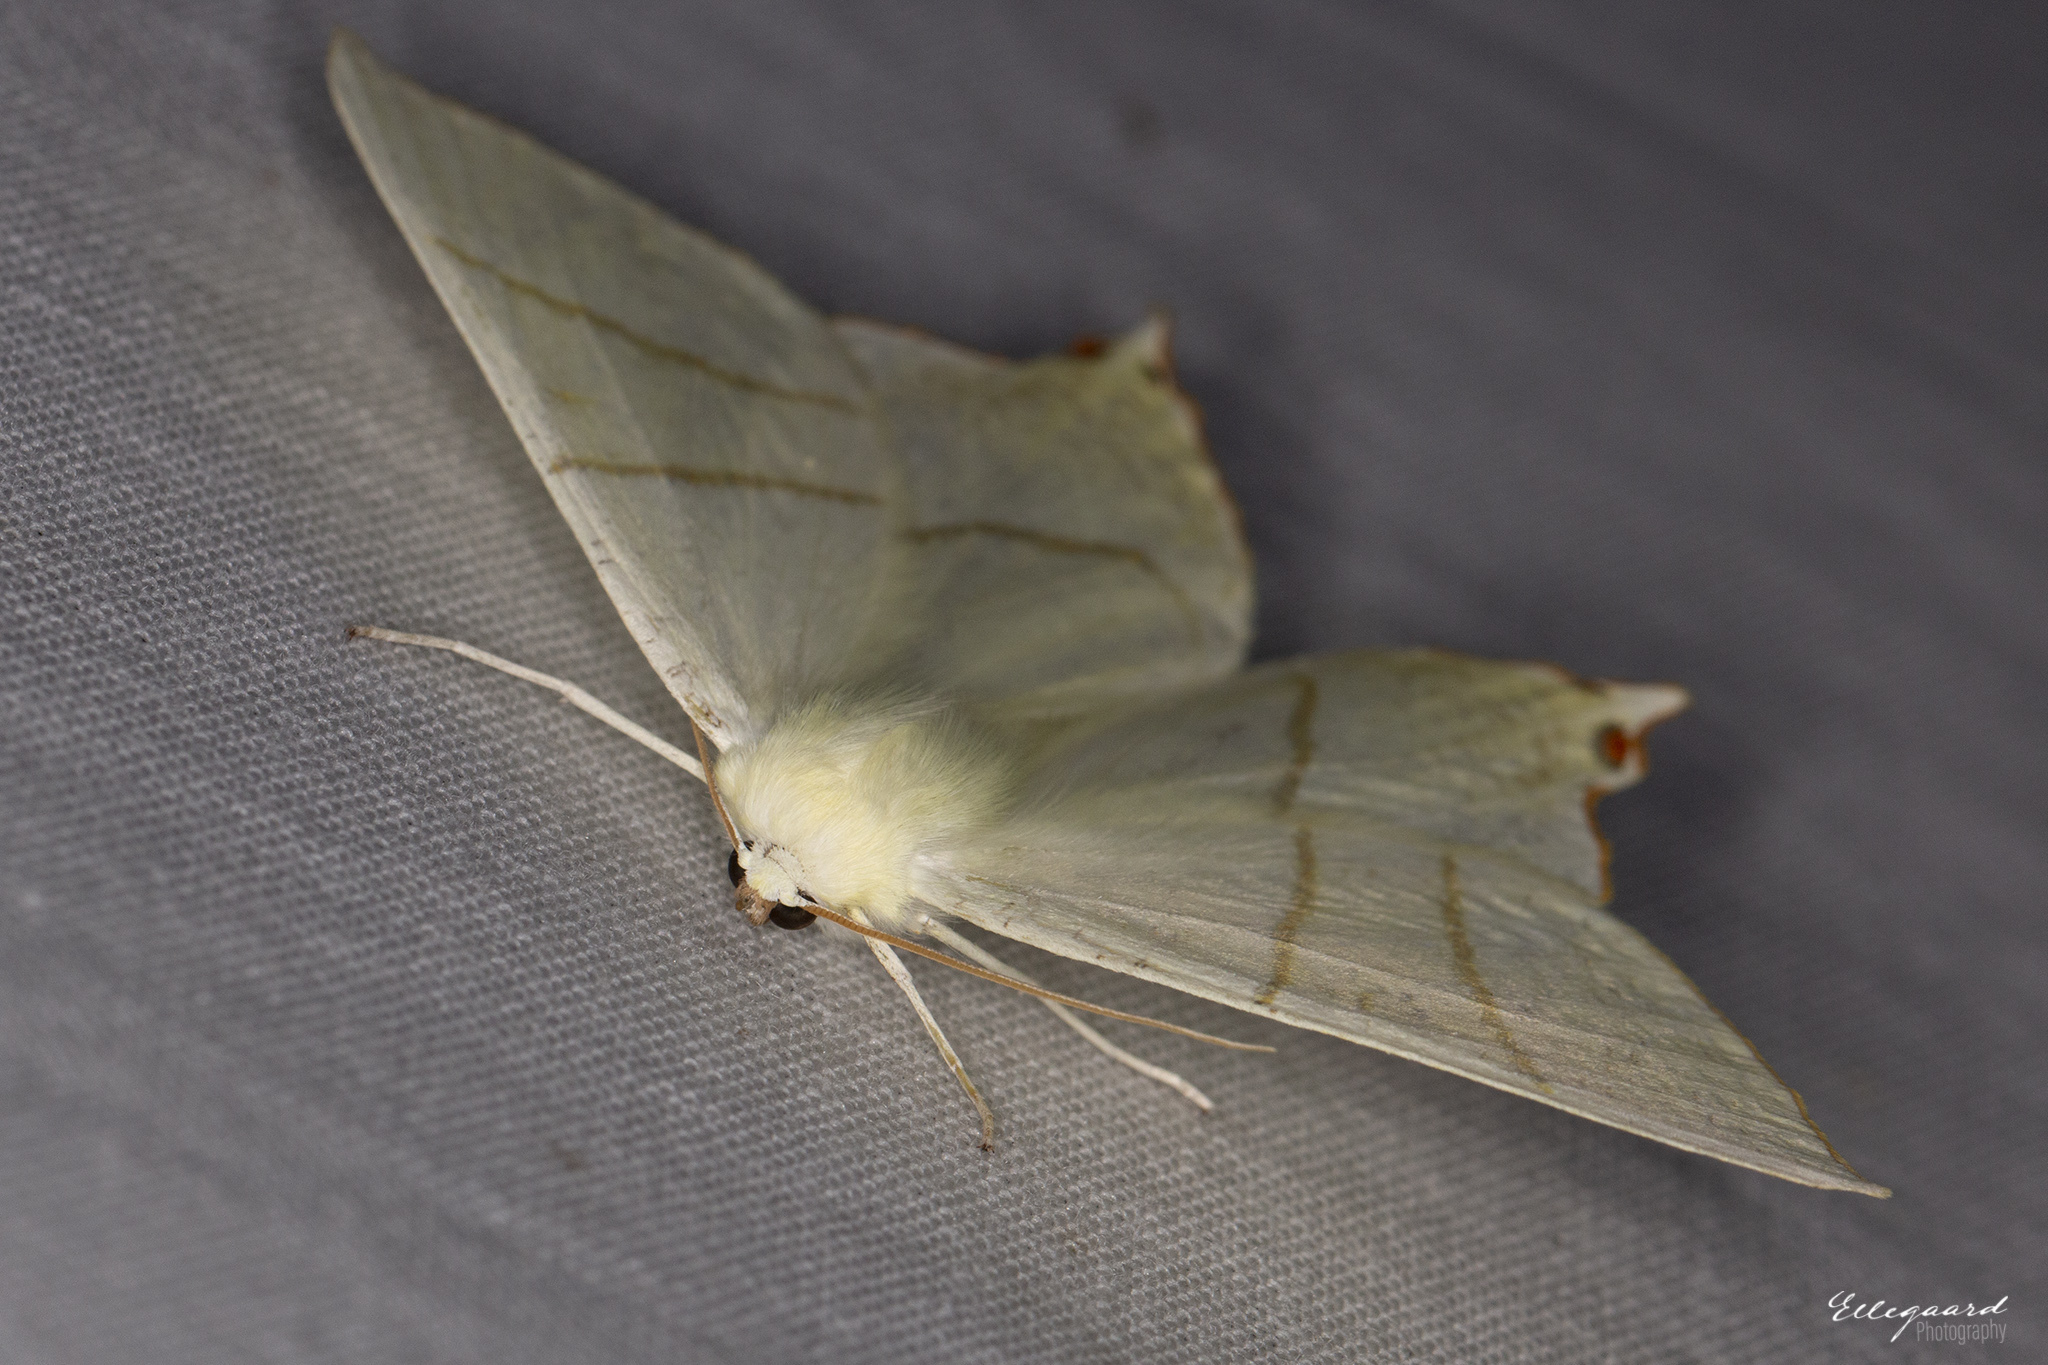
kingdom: Animalia
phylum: Arthropoda
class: Insecta
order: Lepidoptera
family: Geometridae
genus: Ourapteryx
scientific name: Ourapteryx sambucaria
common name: Swallow-tailed moth
